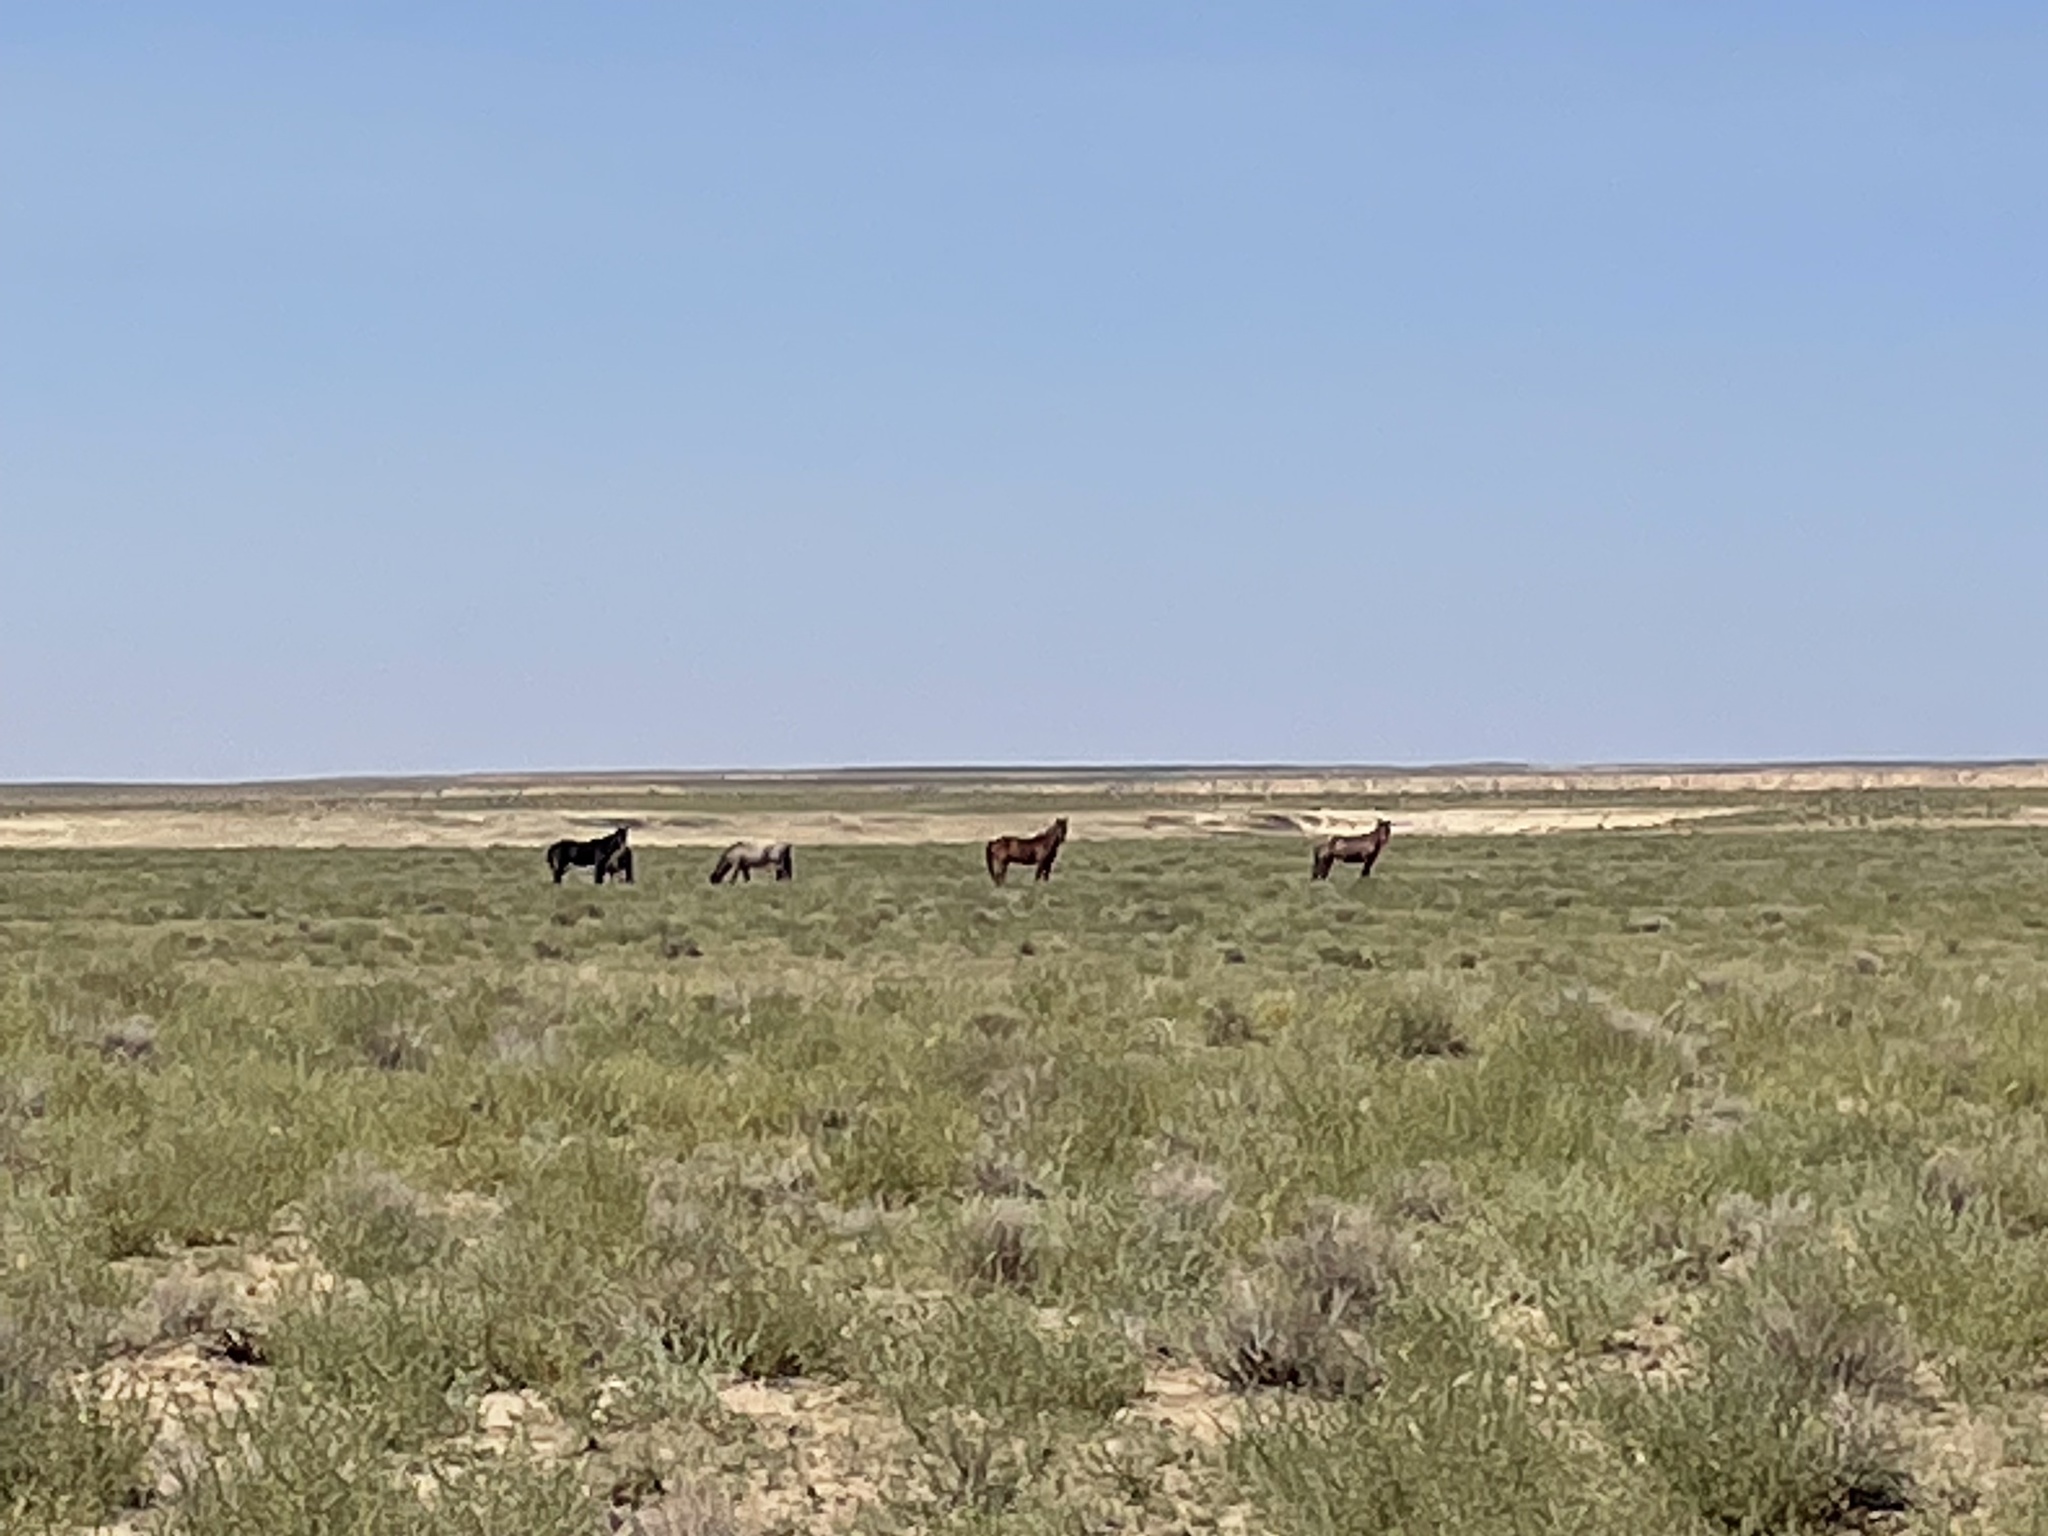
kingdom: Animalia
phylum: Chordata
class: Mammalia
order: Perissodactyla
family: Equidae
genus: Equus
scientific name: Equus caballus
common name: Horse
